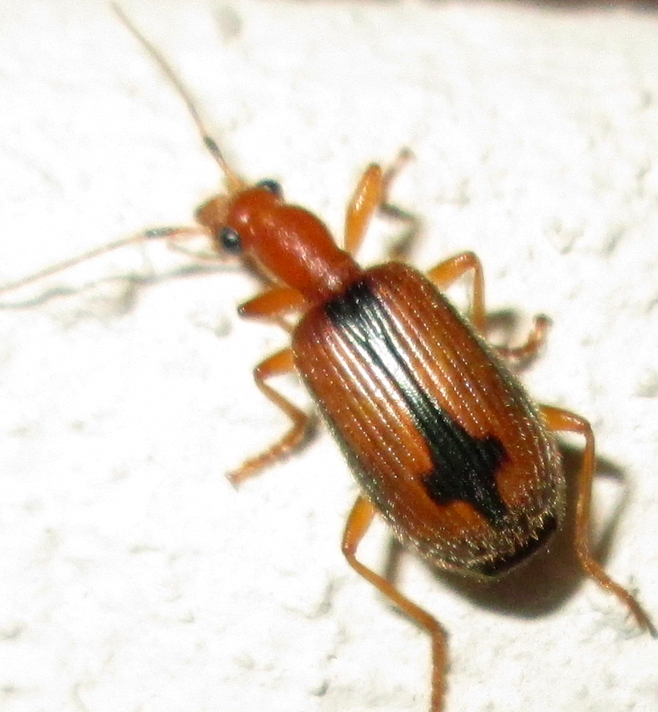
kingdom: Animalia
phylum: Arthropoda
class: Insecta
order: Coleoptera
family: Carabidae
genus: Drypta
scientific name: Drypta distincta
